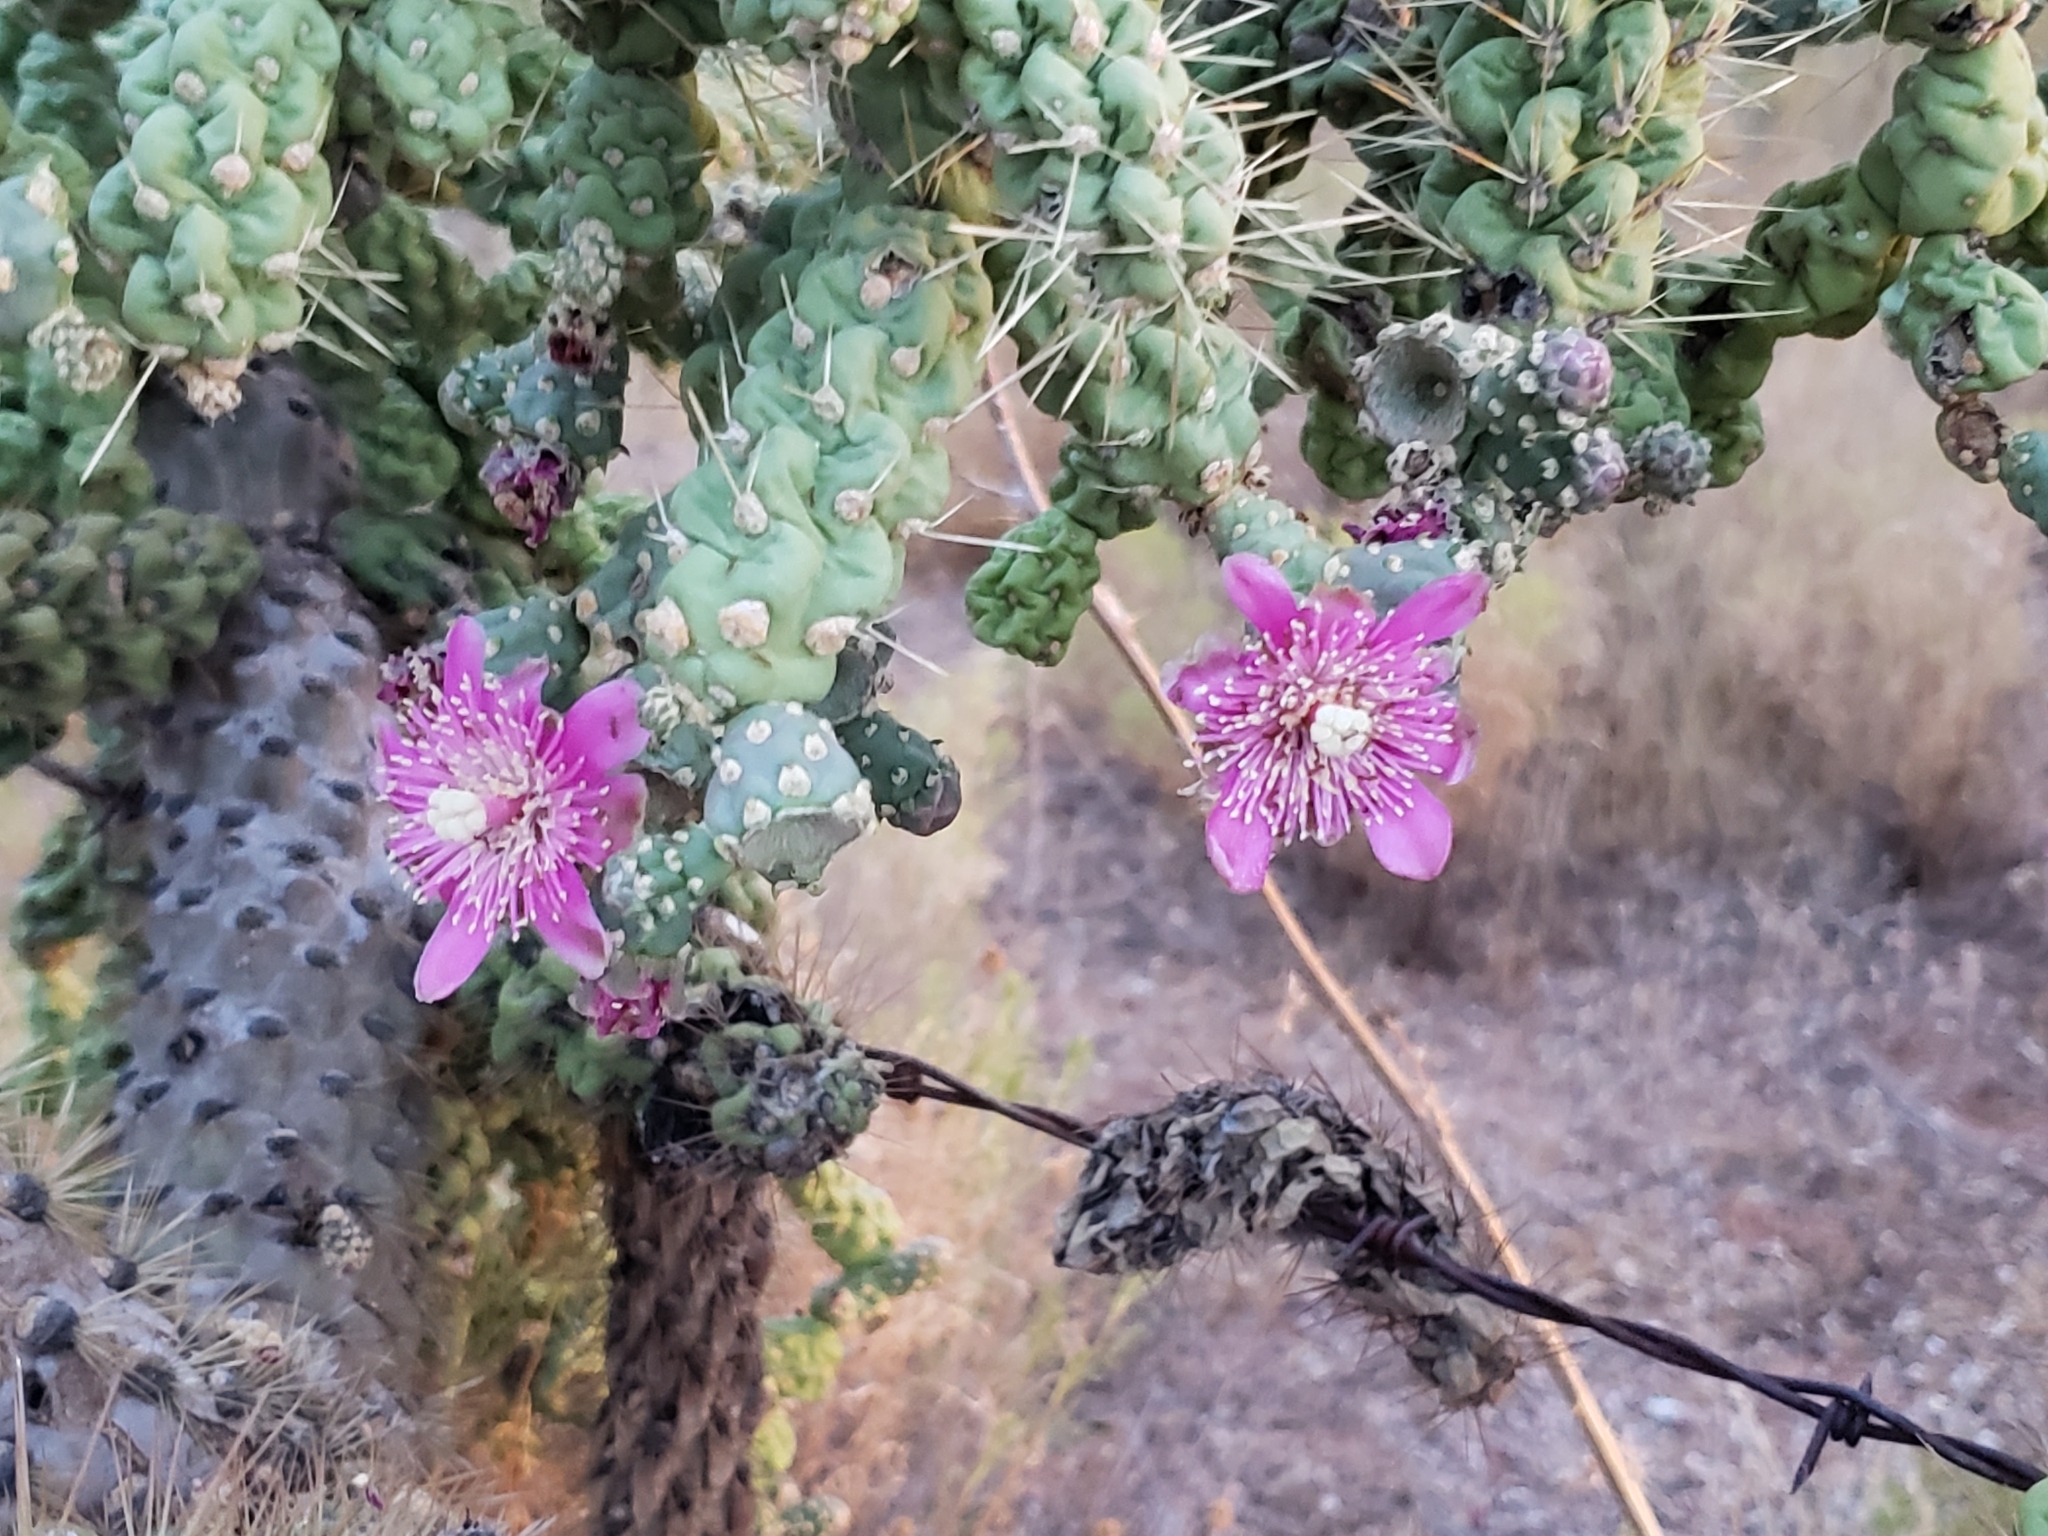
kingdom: Plantae
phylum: Tracheophyta
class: Magnoliopsida
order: Caryophyllales
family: Cactaceae
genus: Cylindropuntia
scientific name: Cylindropuntia fulgida
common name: Jumping cholla
